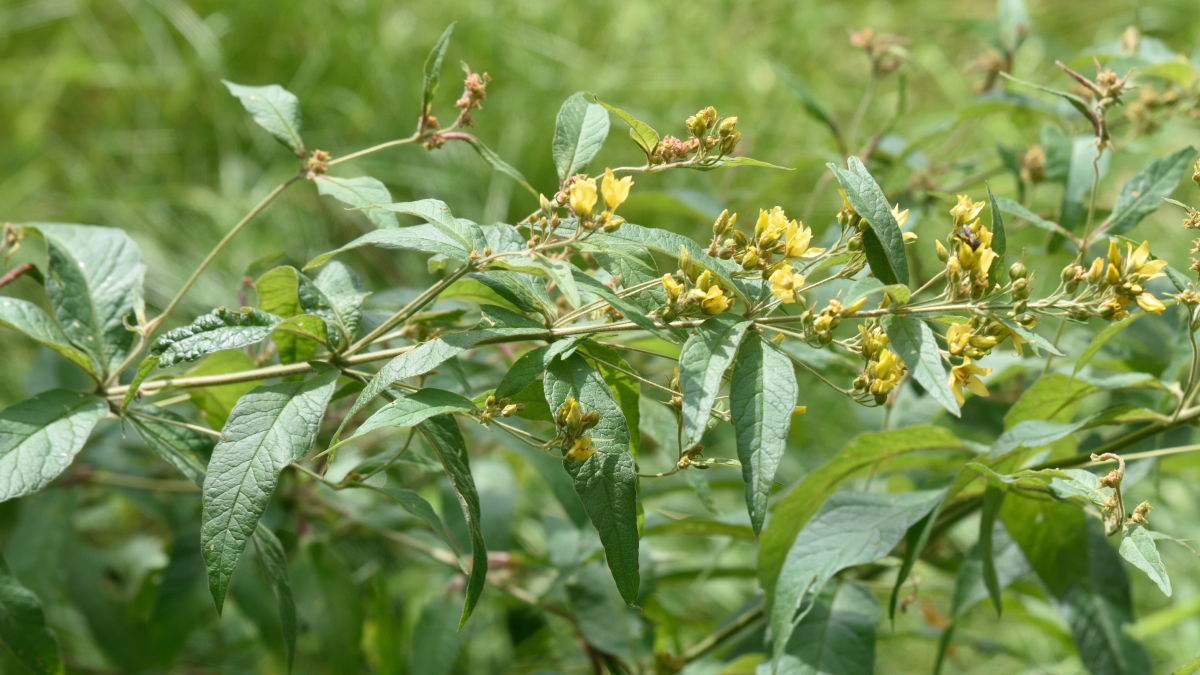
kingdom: Plantae
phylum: Tracheophyta
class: Magnoliopsida
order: Ericales
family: Primulaceae
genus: Lysimachia
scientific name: Lysimachia vulgaris
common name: Yellow loosestrife
